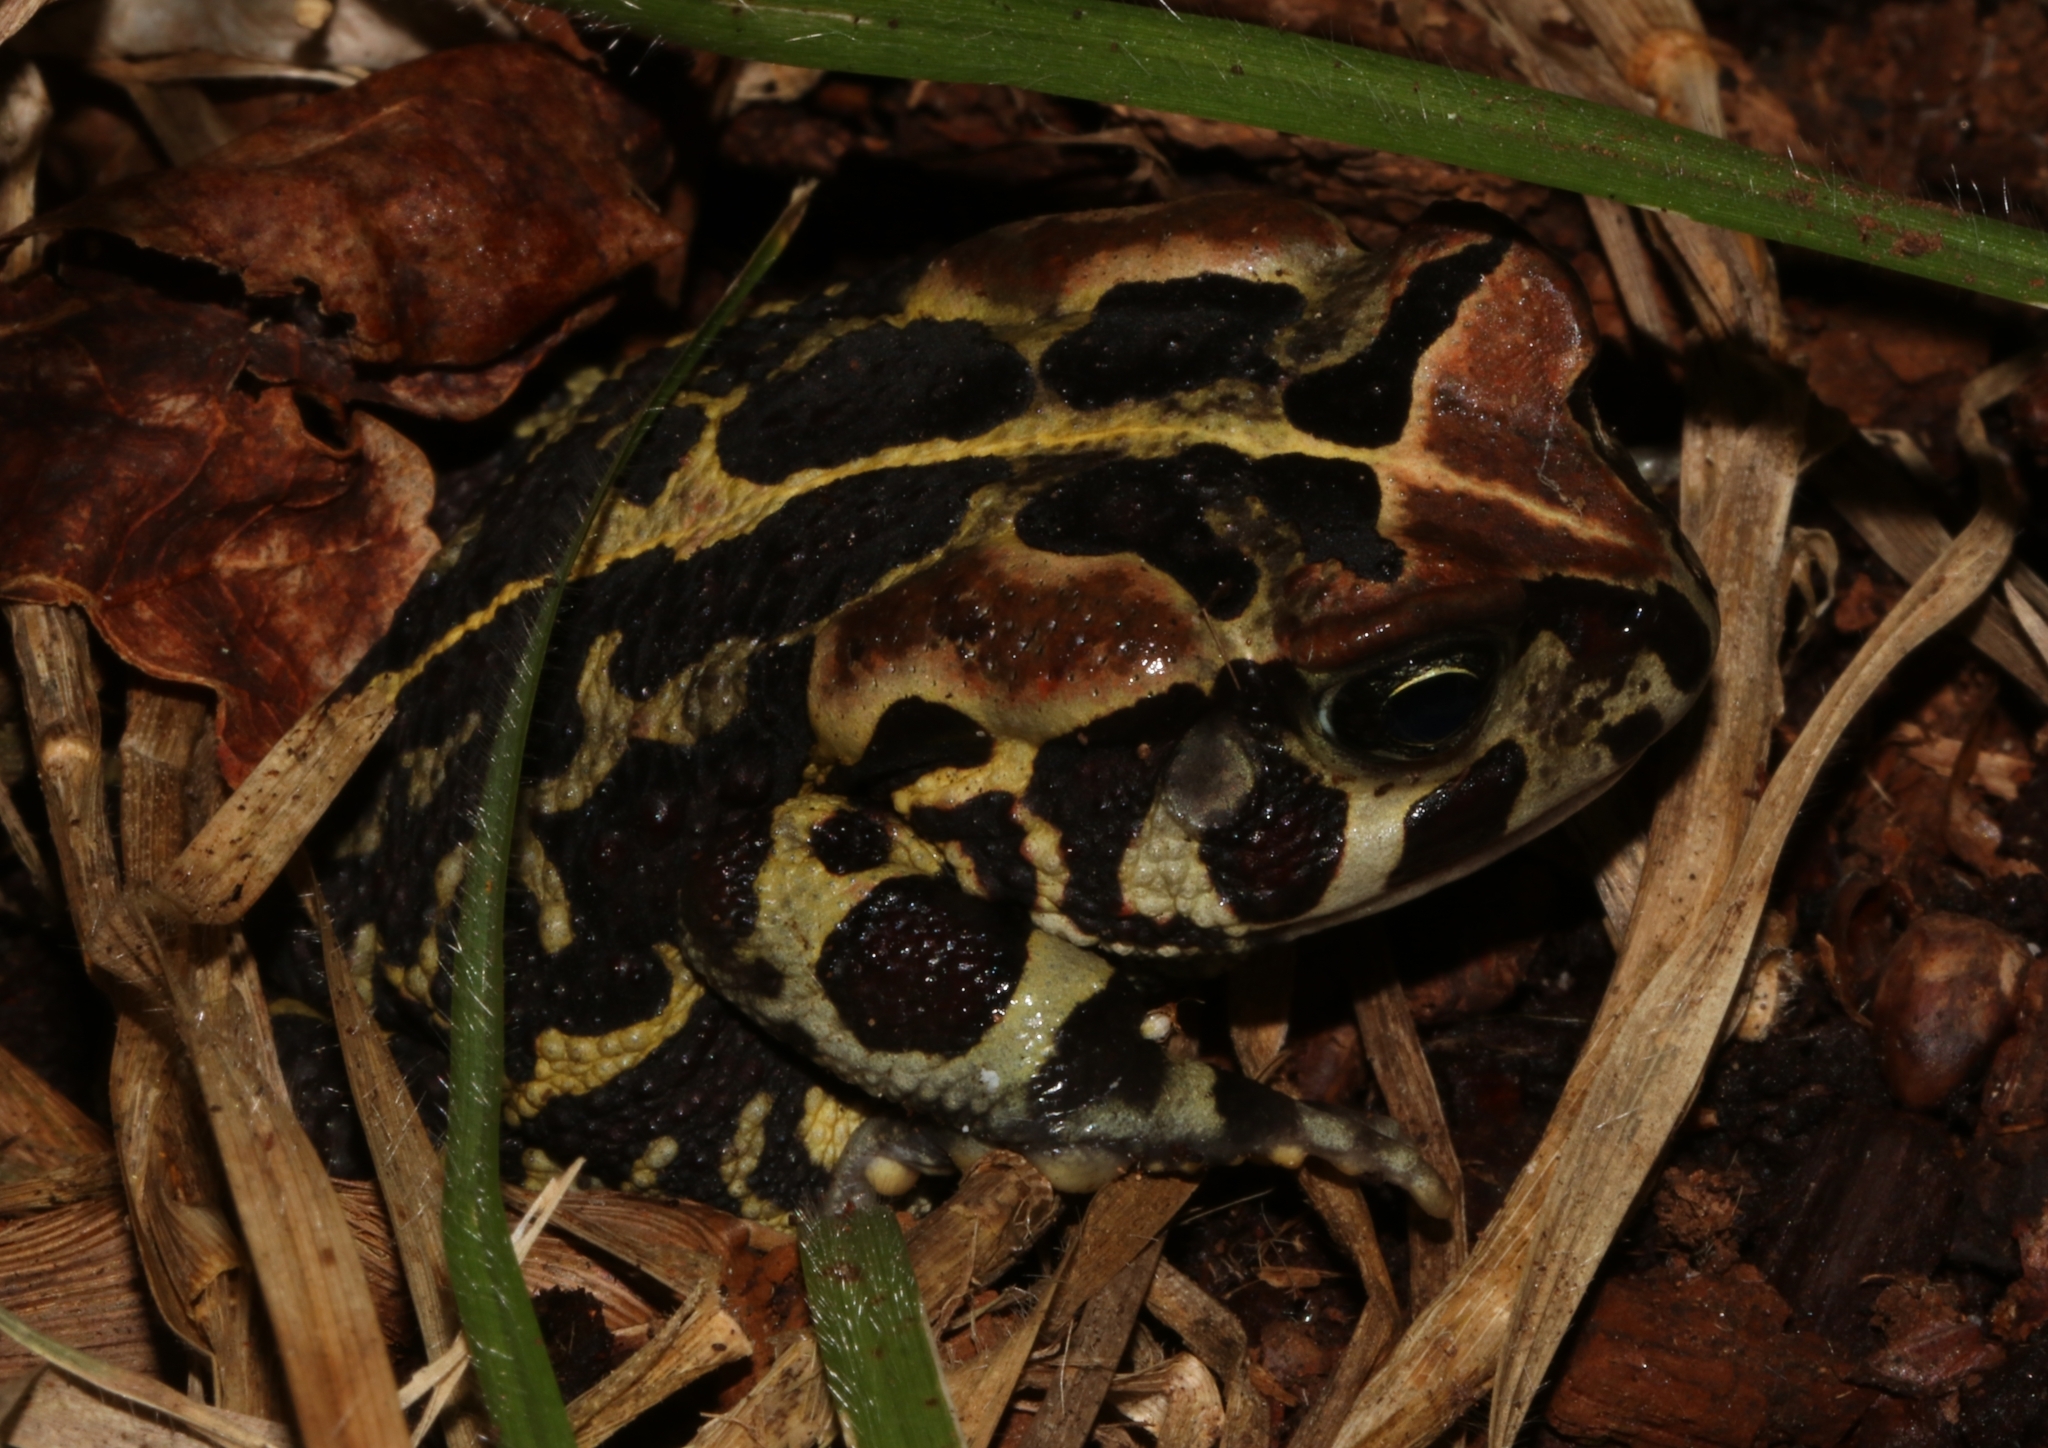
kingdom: Animalia
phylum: Chordata
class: Amphibia
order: Anura
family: Bufonidae
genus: Sclerophrys
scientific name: Sclerophrys pantherina
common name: Panther toad
